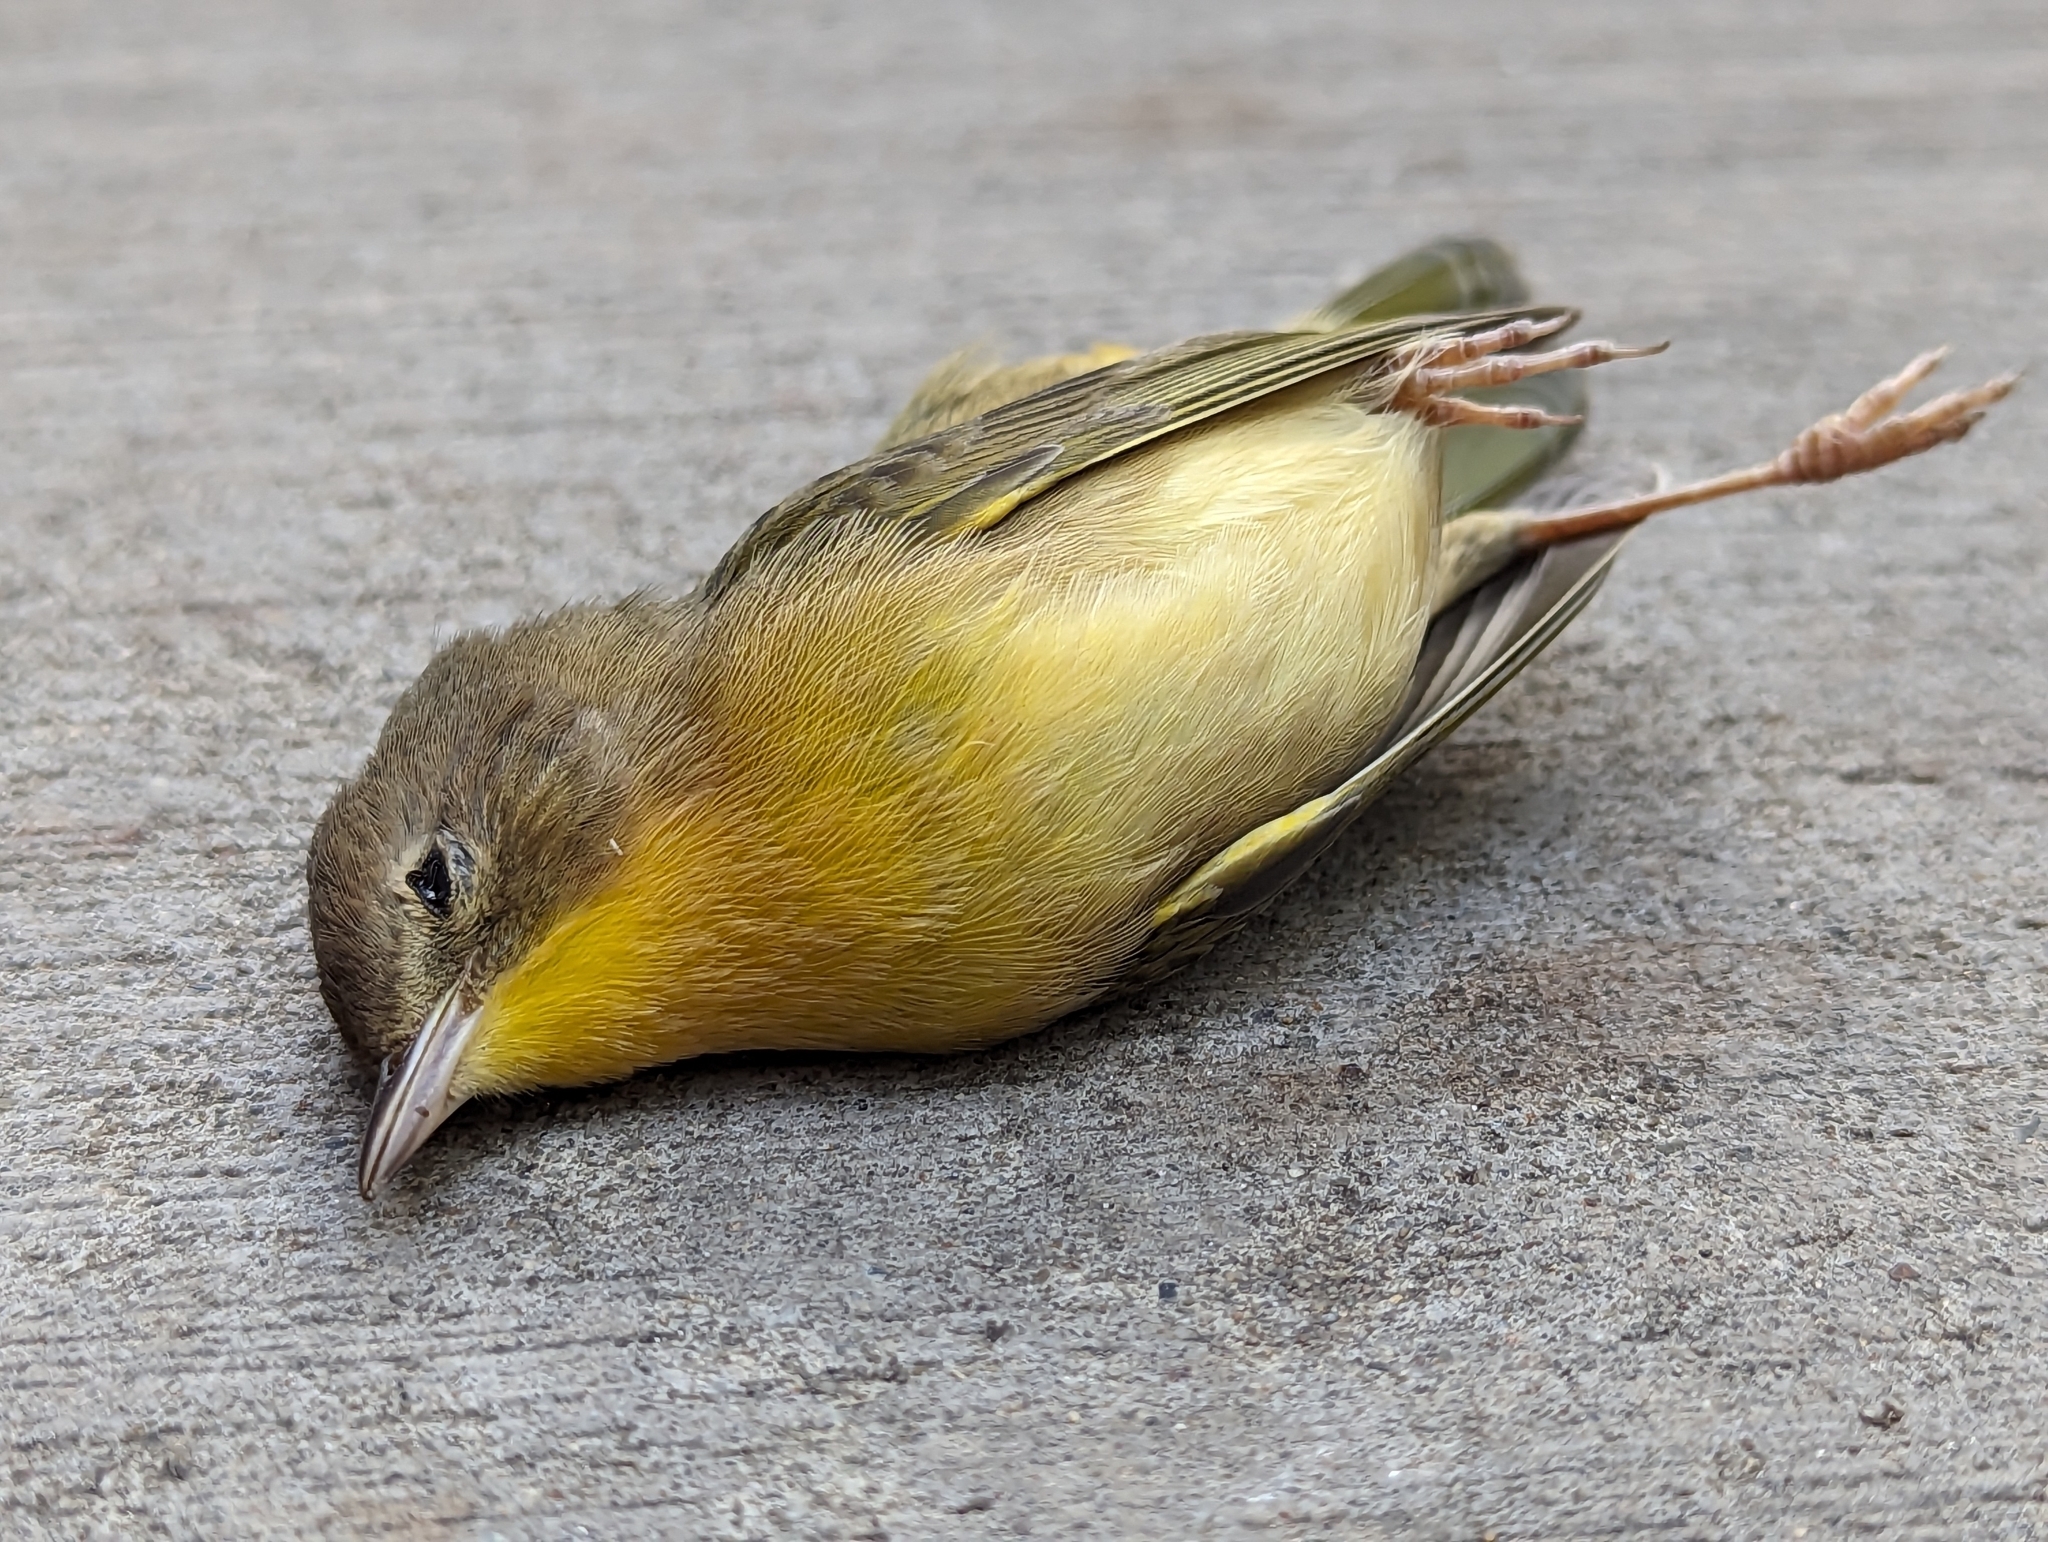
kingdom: Animalia
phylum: Chordata
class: Aves
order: Passeriformes
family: Parulidae
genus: Geothlypis
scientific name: Geothlypis trichas
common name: Common yellowthroat
